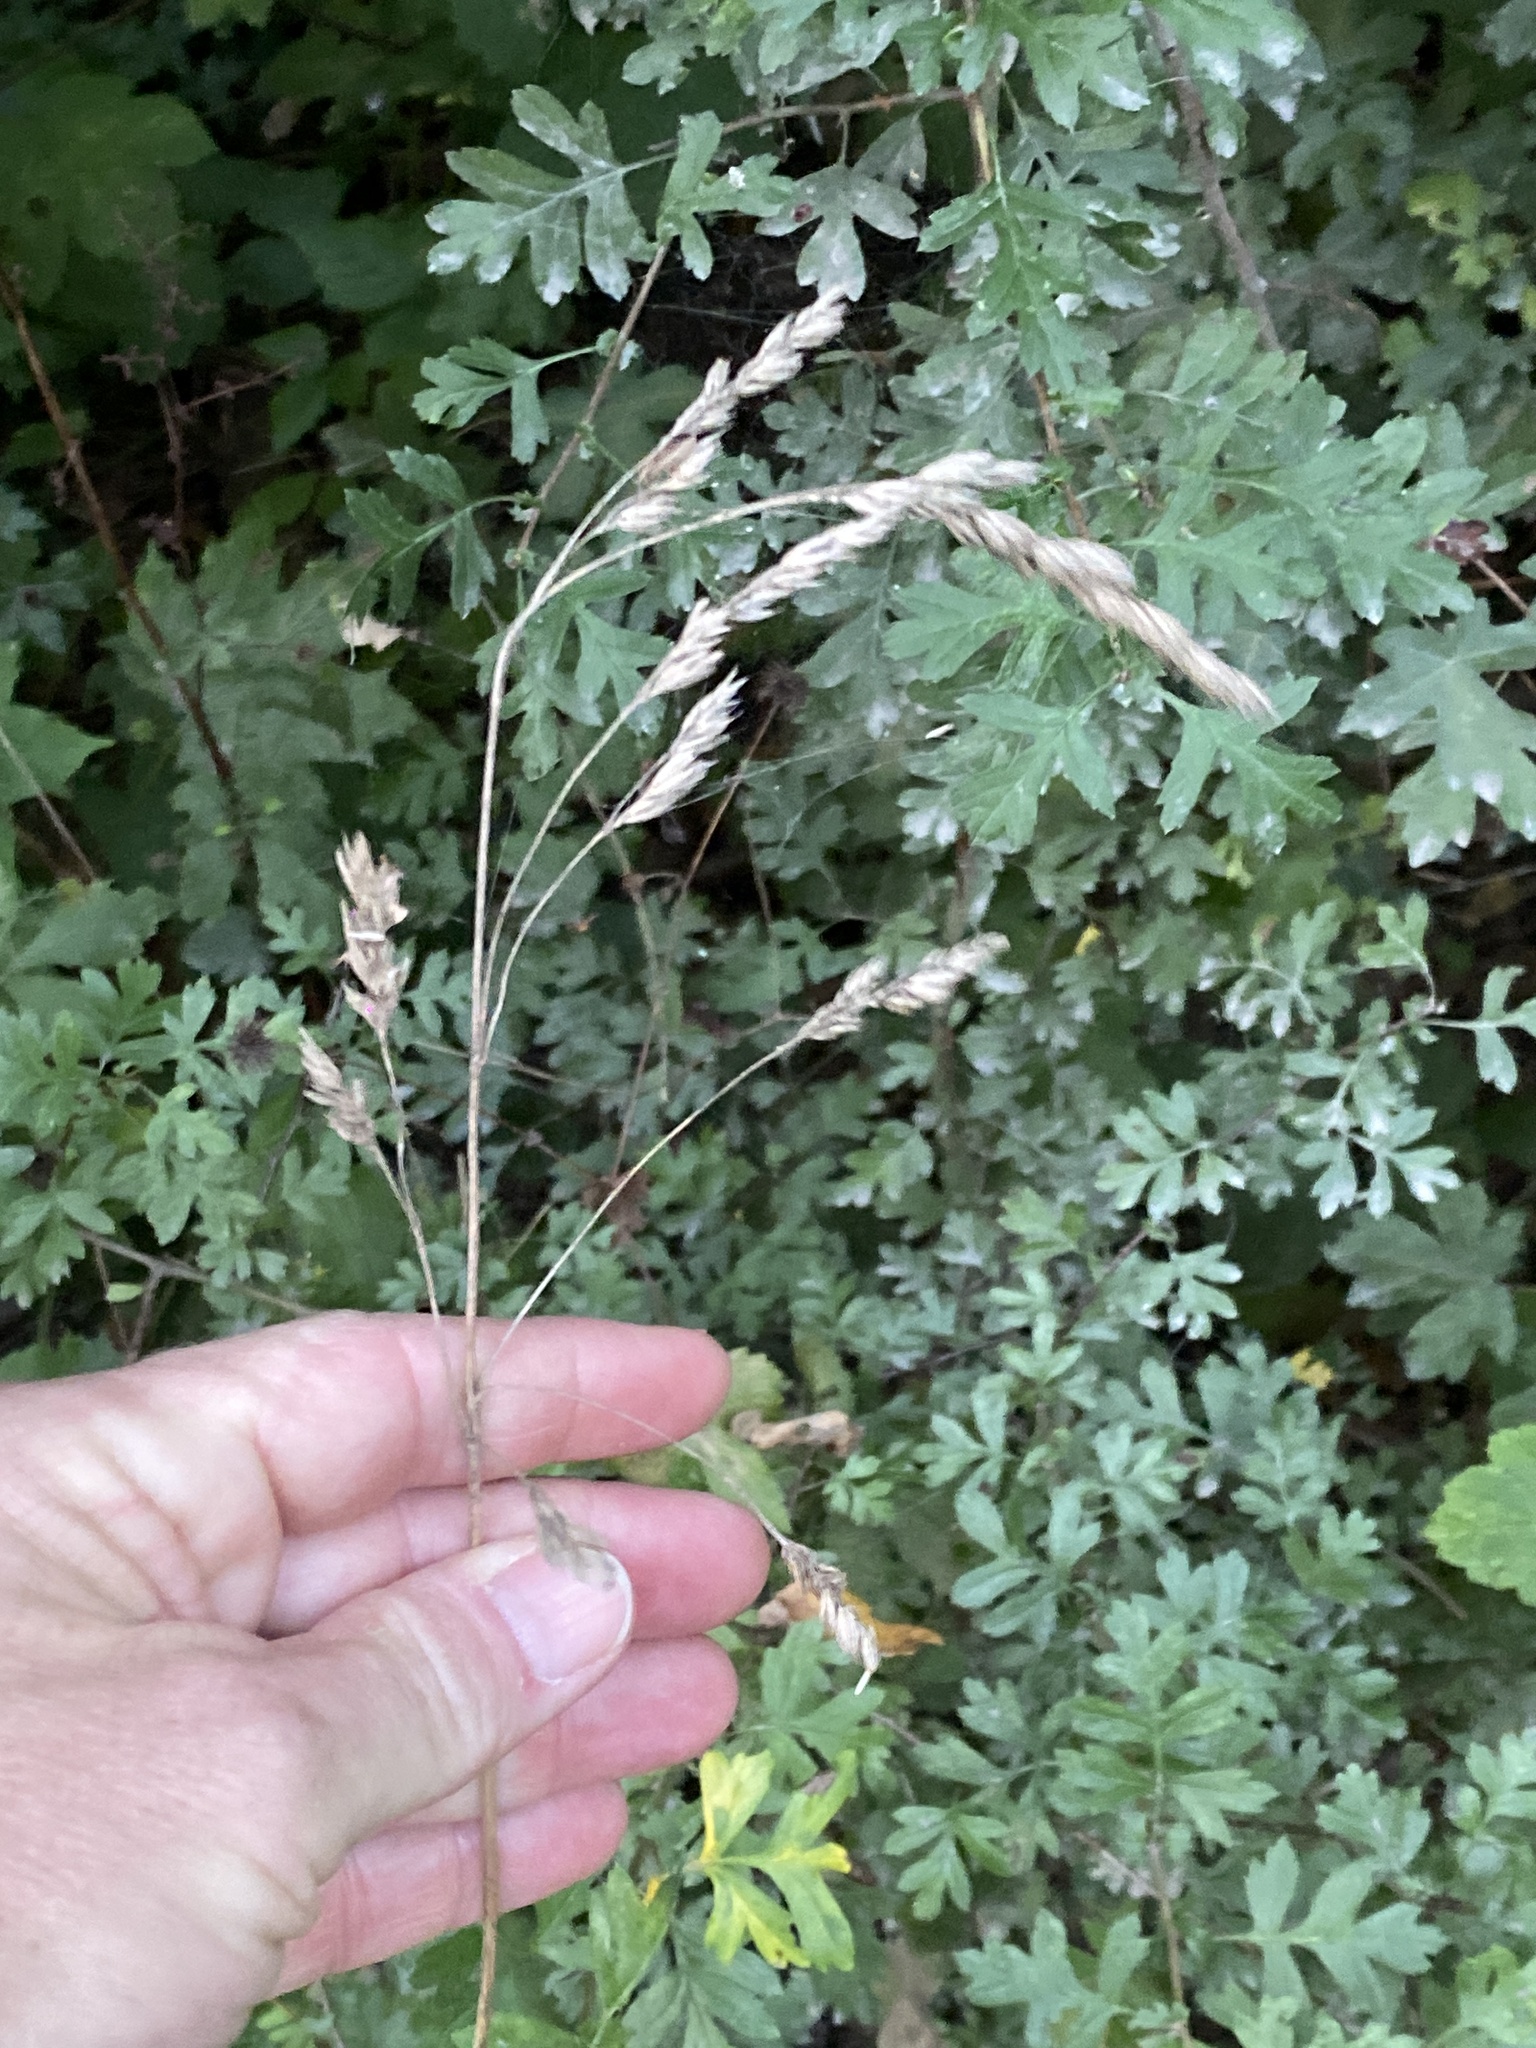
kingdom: Plantae
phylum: Tracheophyta
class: Liliopsida
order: Poales
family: Poaceae
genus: Dactylis
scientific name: Dactylis glomerata
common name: Orchardgrass
